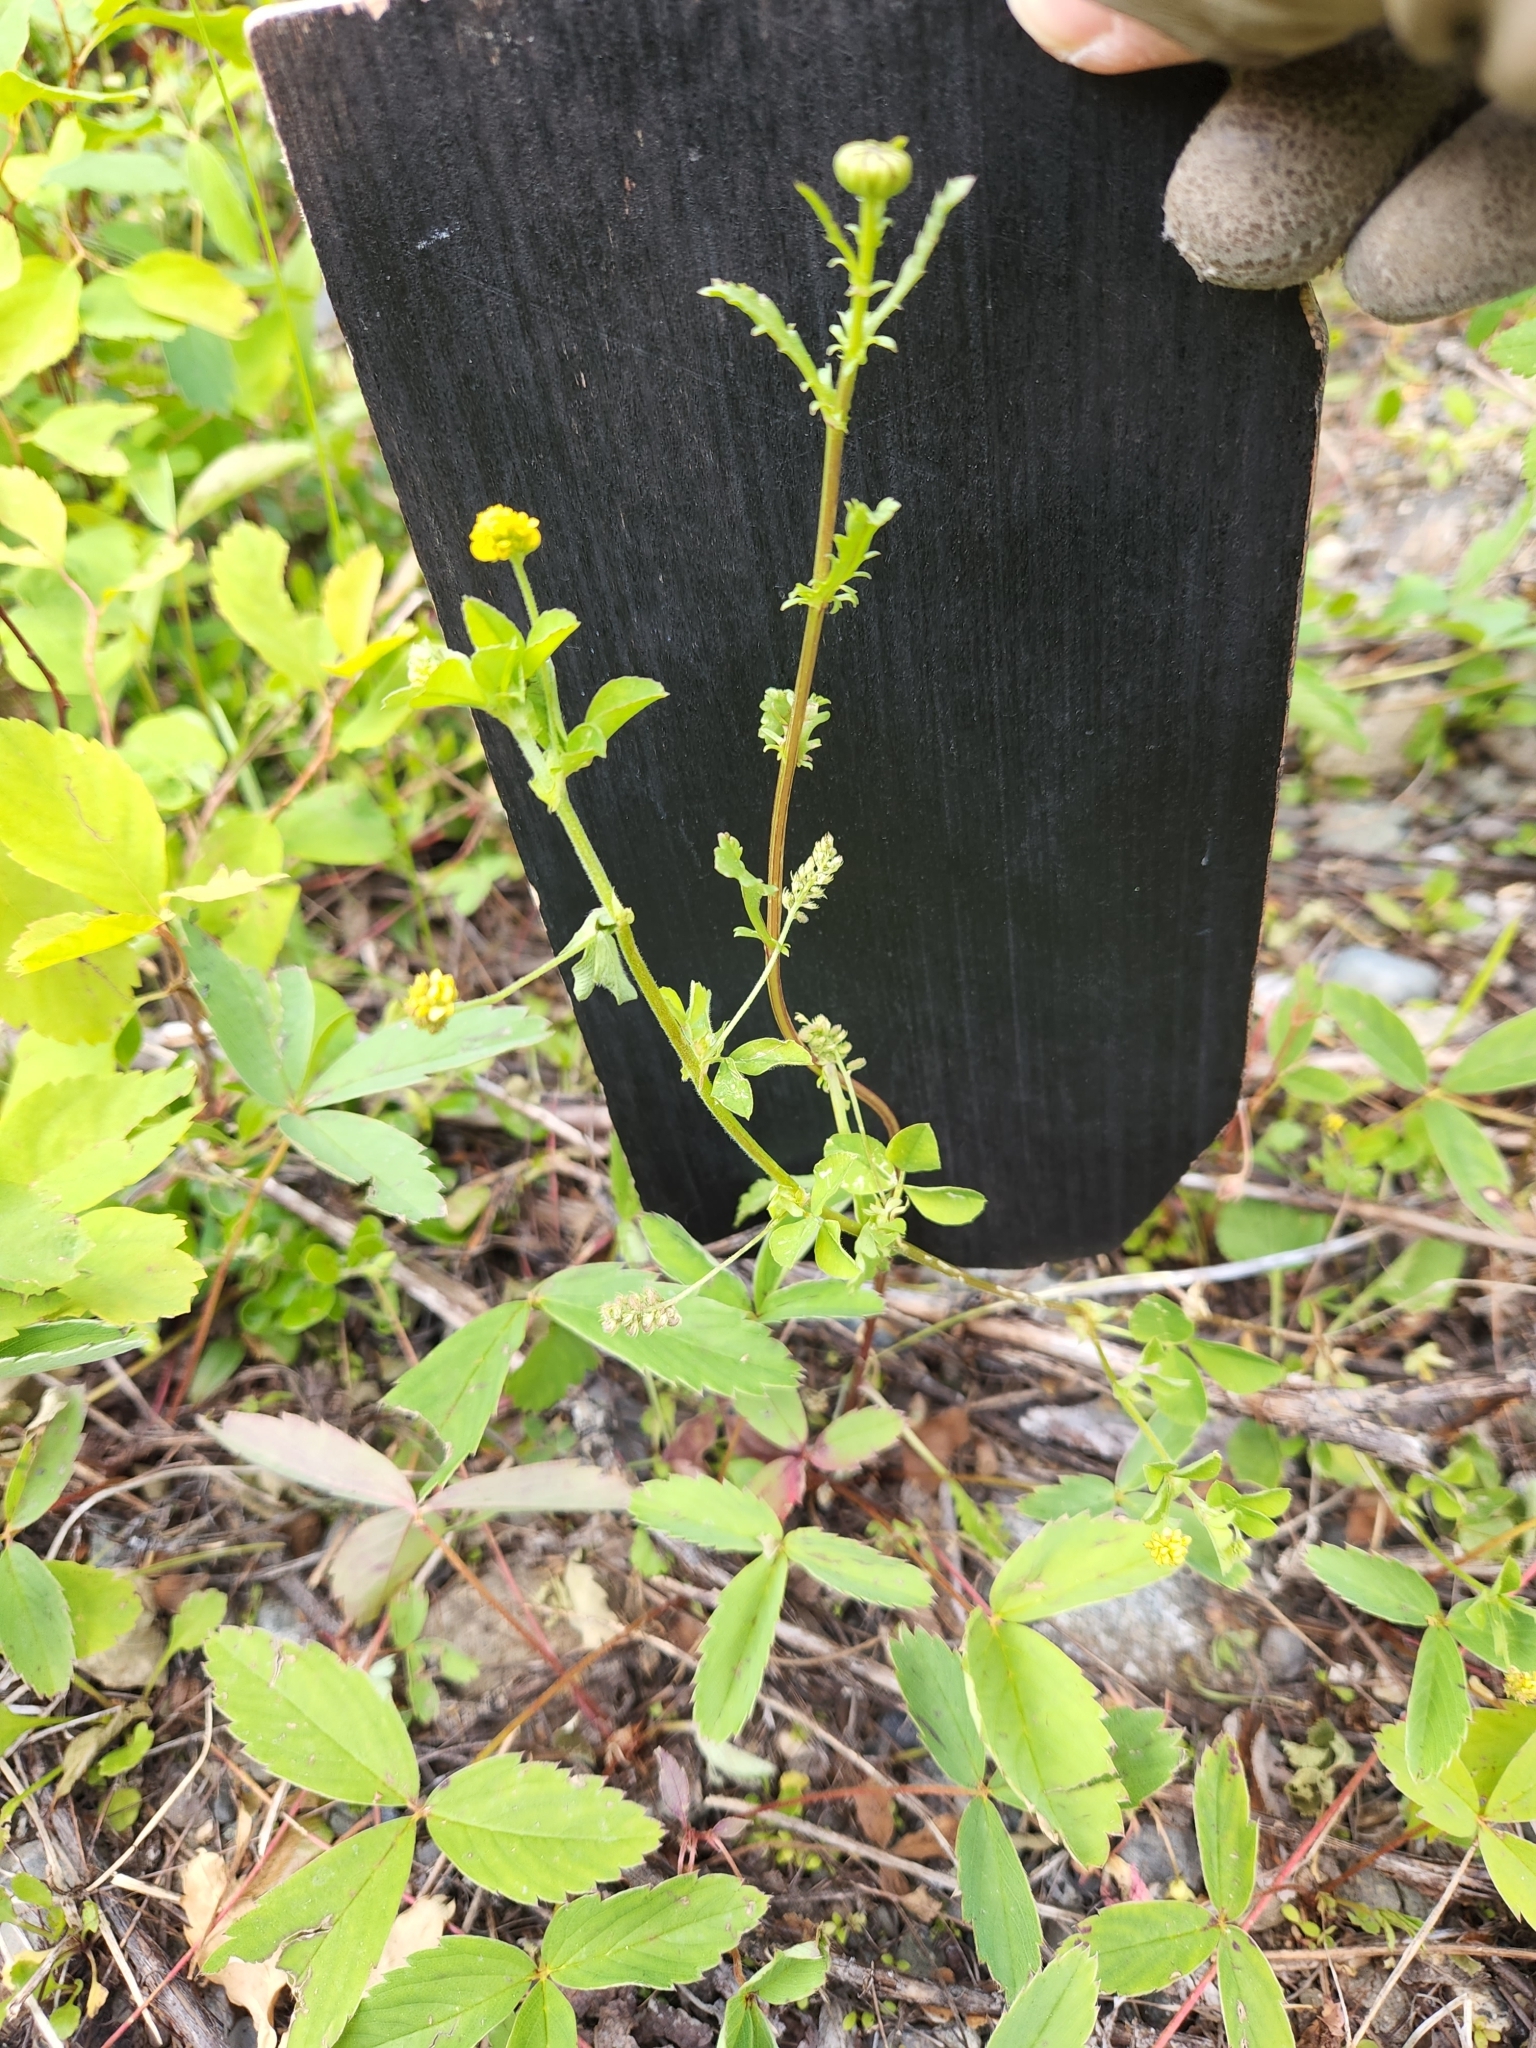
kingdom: Plantae
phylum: Tracheophyta
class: Magnoliopsida
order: Fabales
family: Fabaceae
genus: Medicago
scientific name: Medicago lupulina
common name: Black medick
